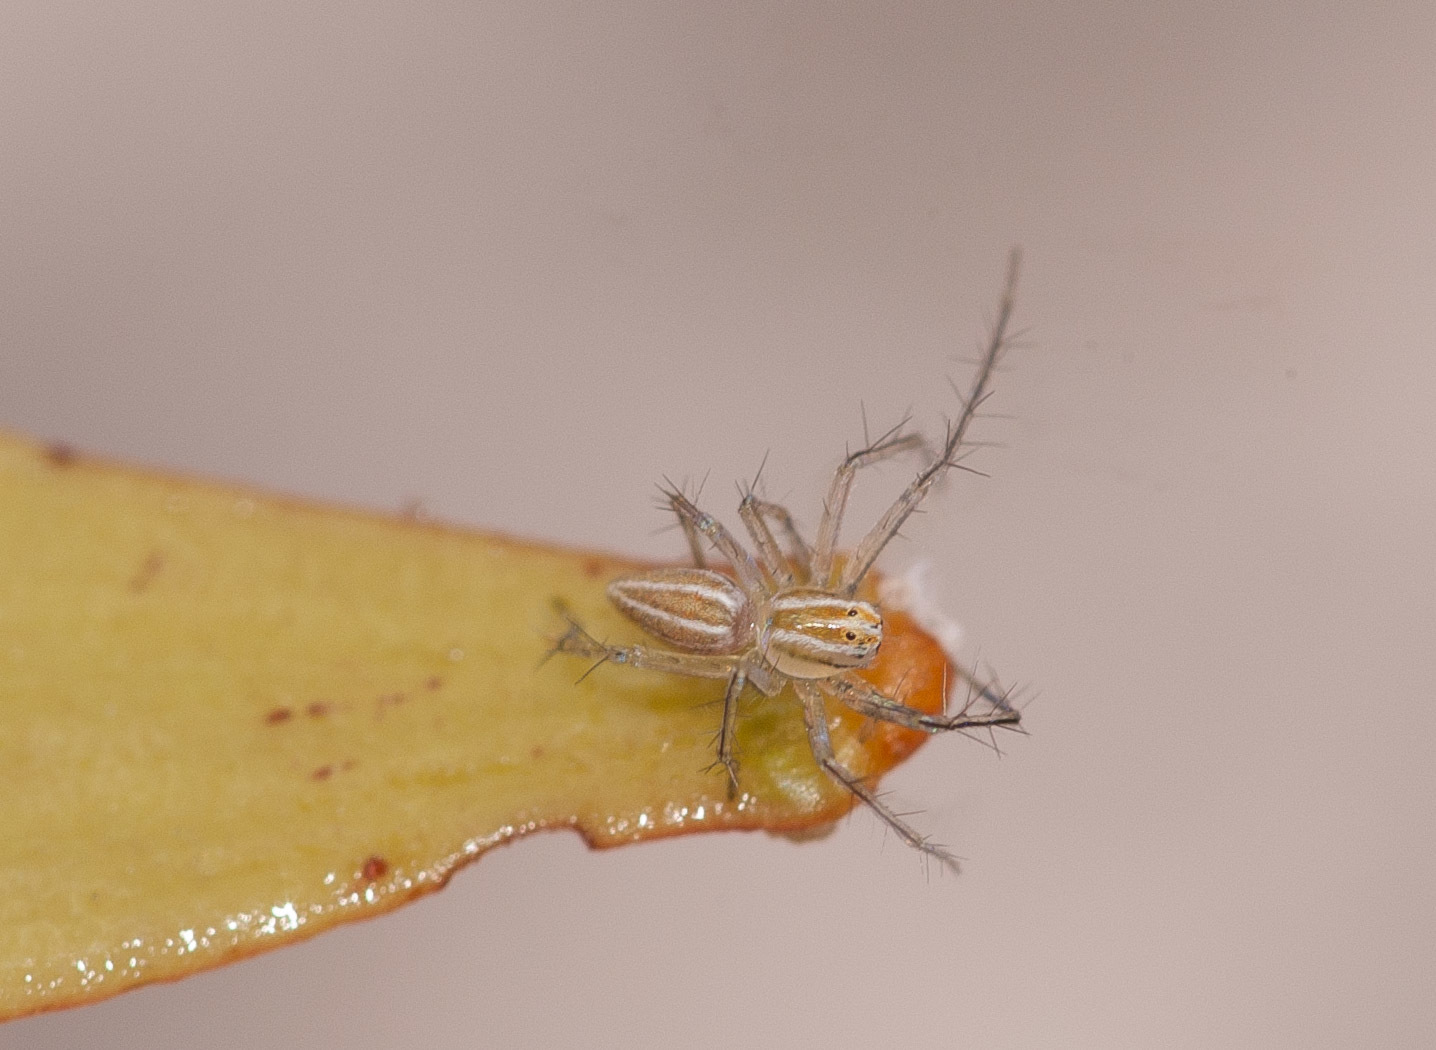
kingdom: Animalia
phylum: Arthropoda
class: Arachnida
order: Araneae
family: Oxyopidae
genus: Oxyopes
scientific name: Oxyopes macilentus
